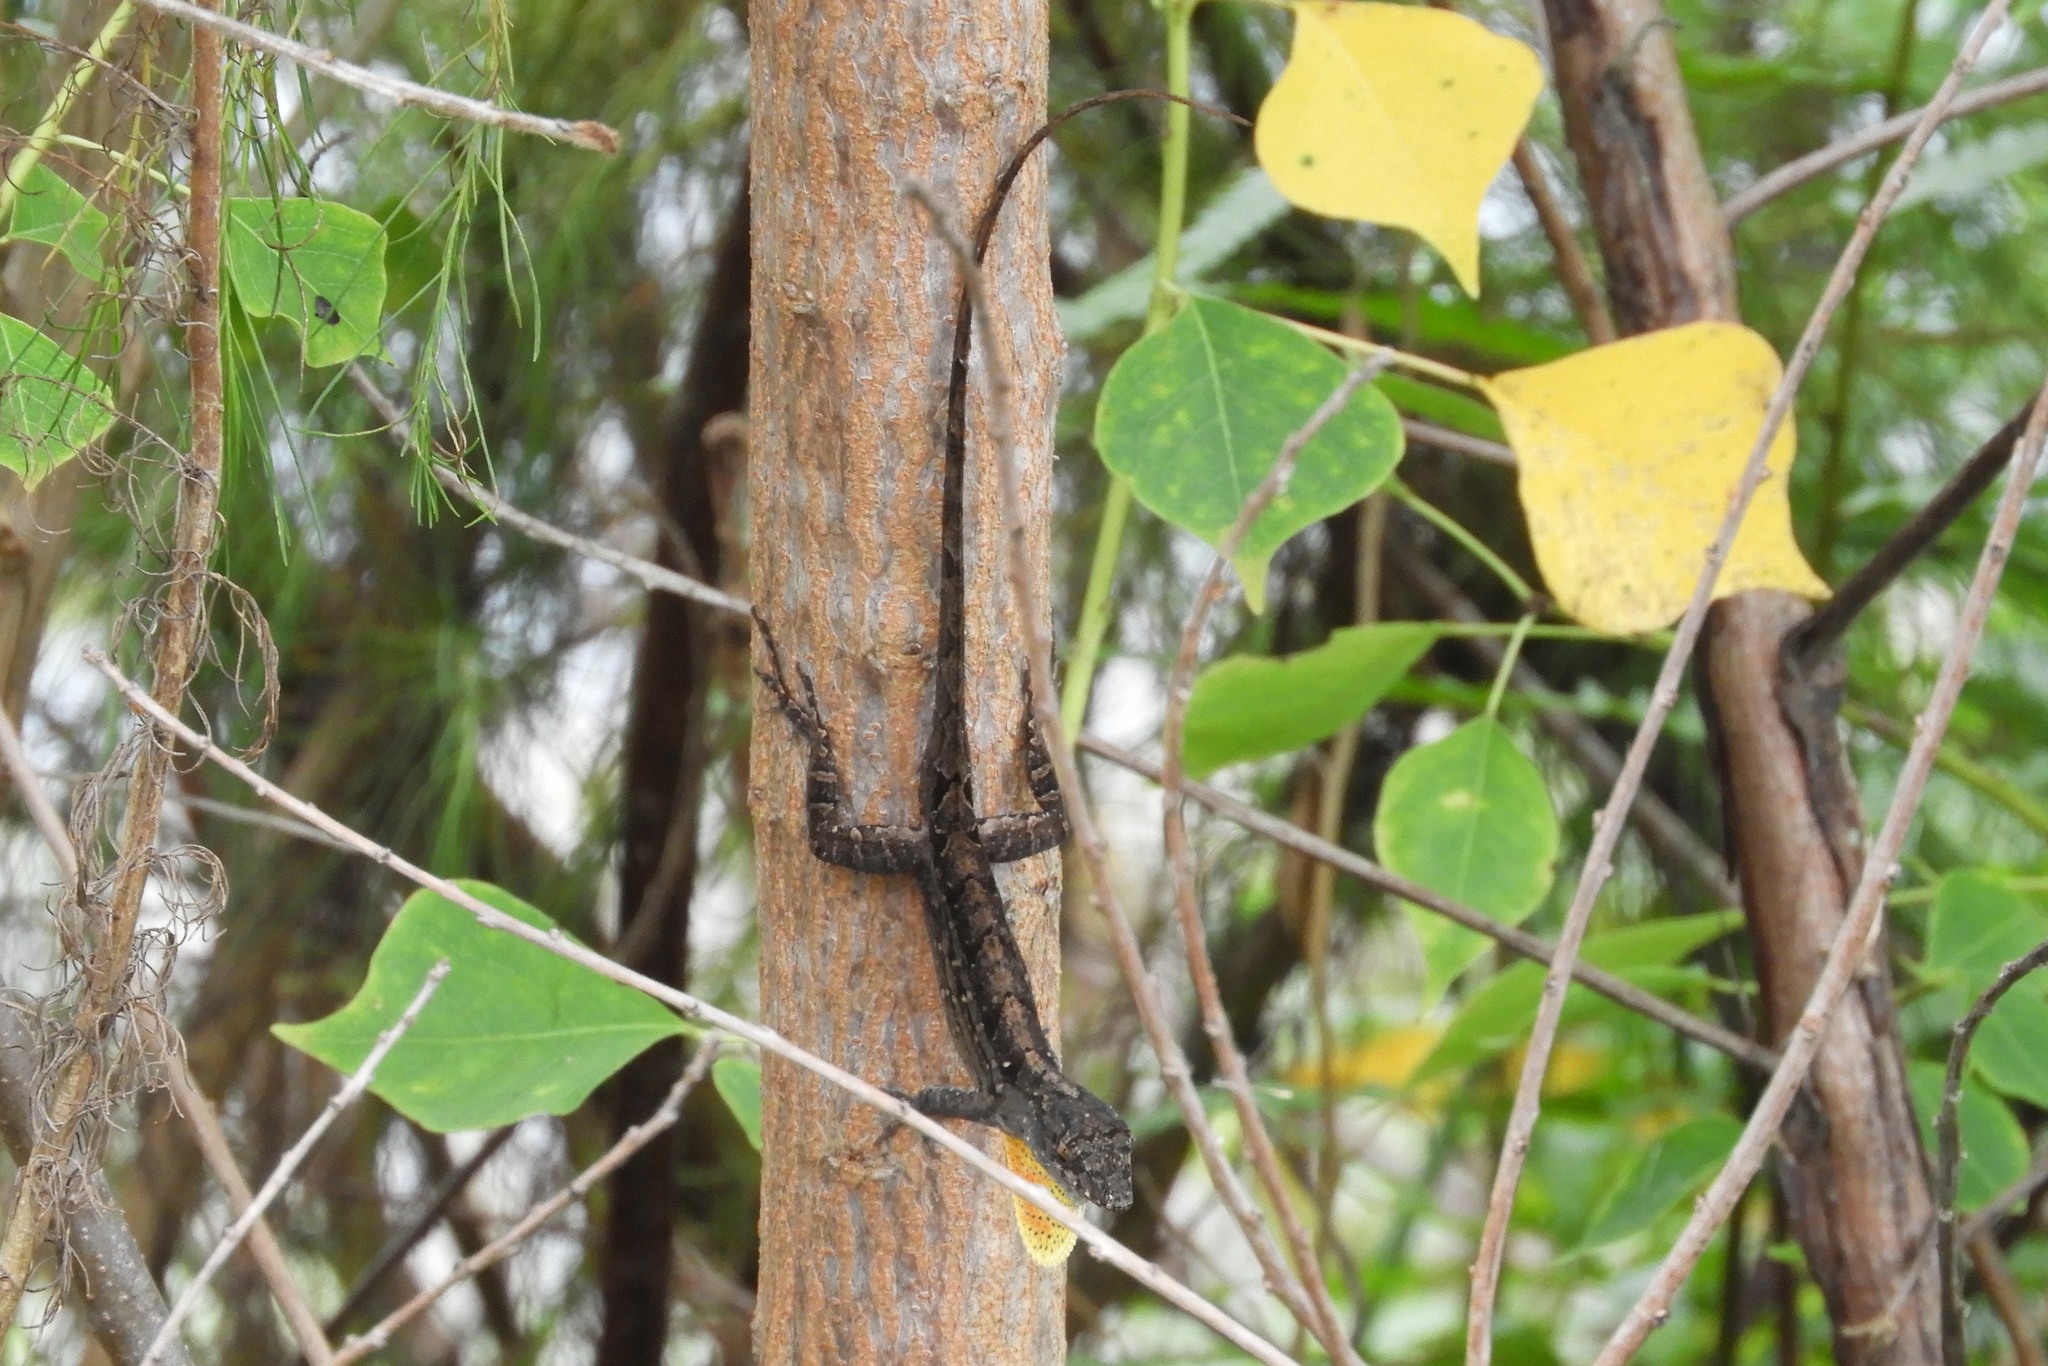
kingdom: Animalia
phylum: Chordata
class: Squamata
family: Dactyloidae
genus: Anolis
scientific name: Anolis sagrei
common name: Brown anole
